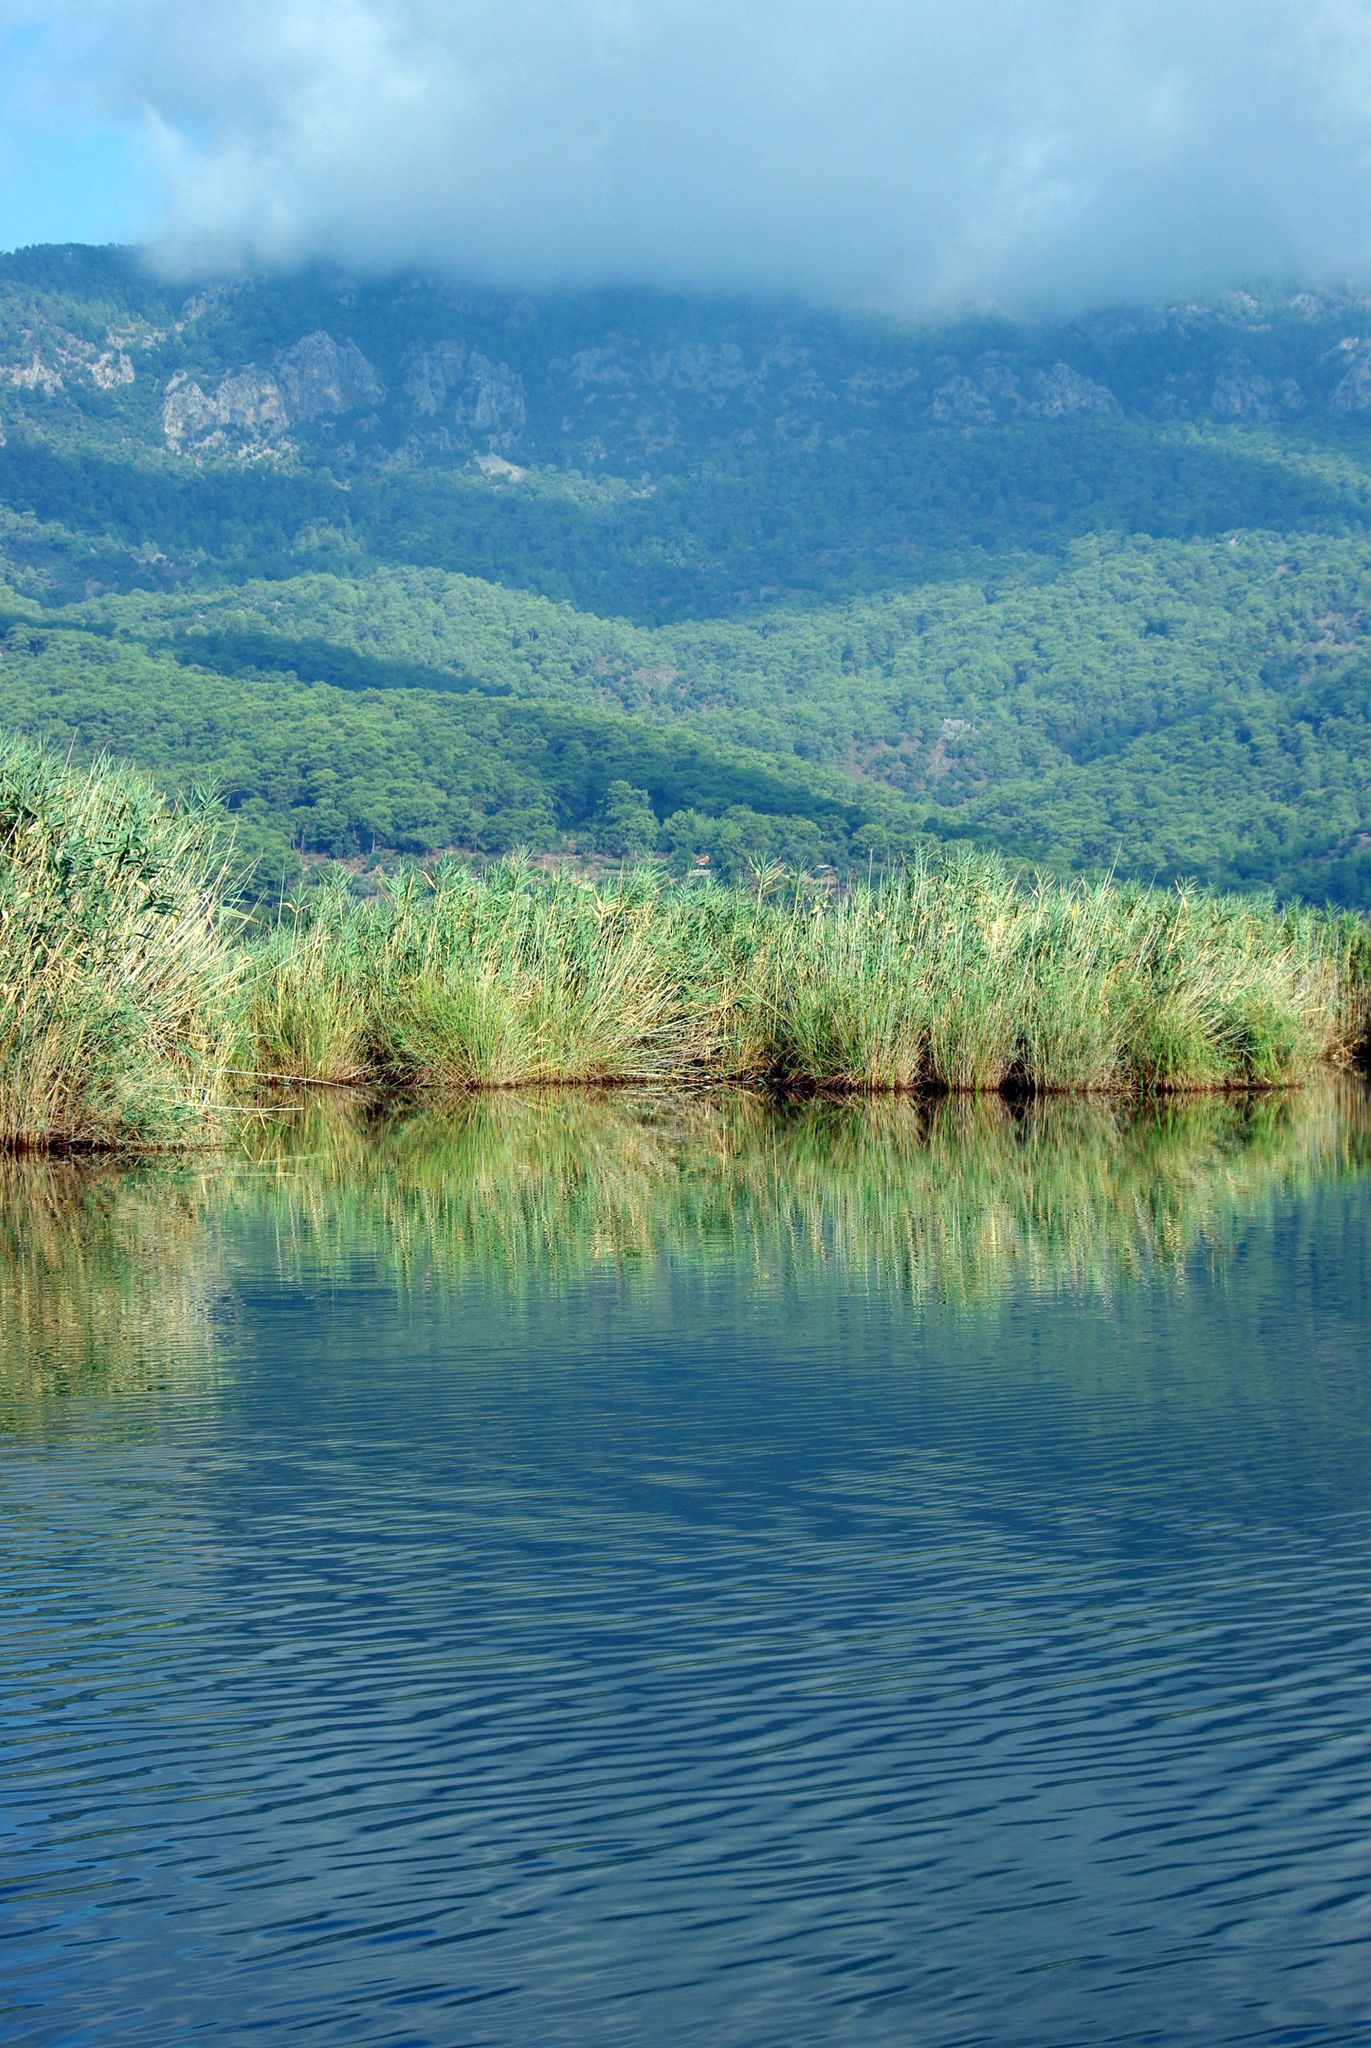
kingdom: Plantae
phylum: Tracheophyta
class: Liliopsida
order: Poales
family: Poaceae
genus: Phragmites
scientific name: Phragmites australis
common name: Common reed
